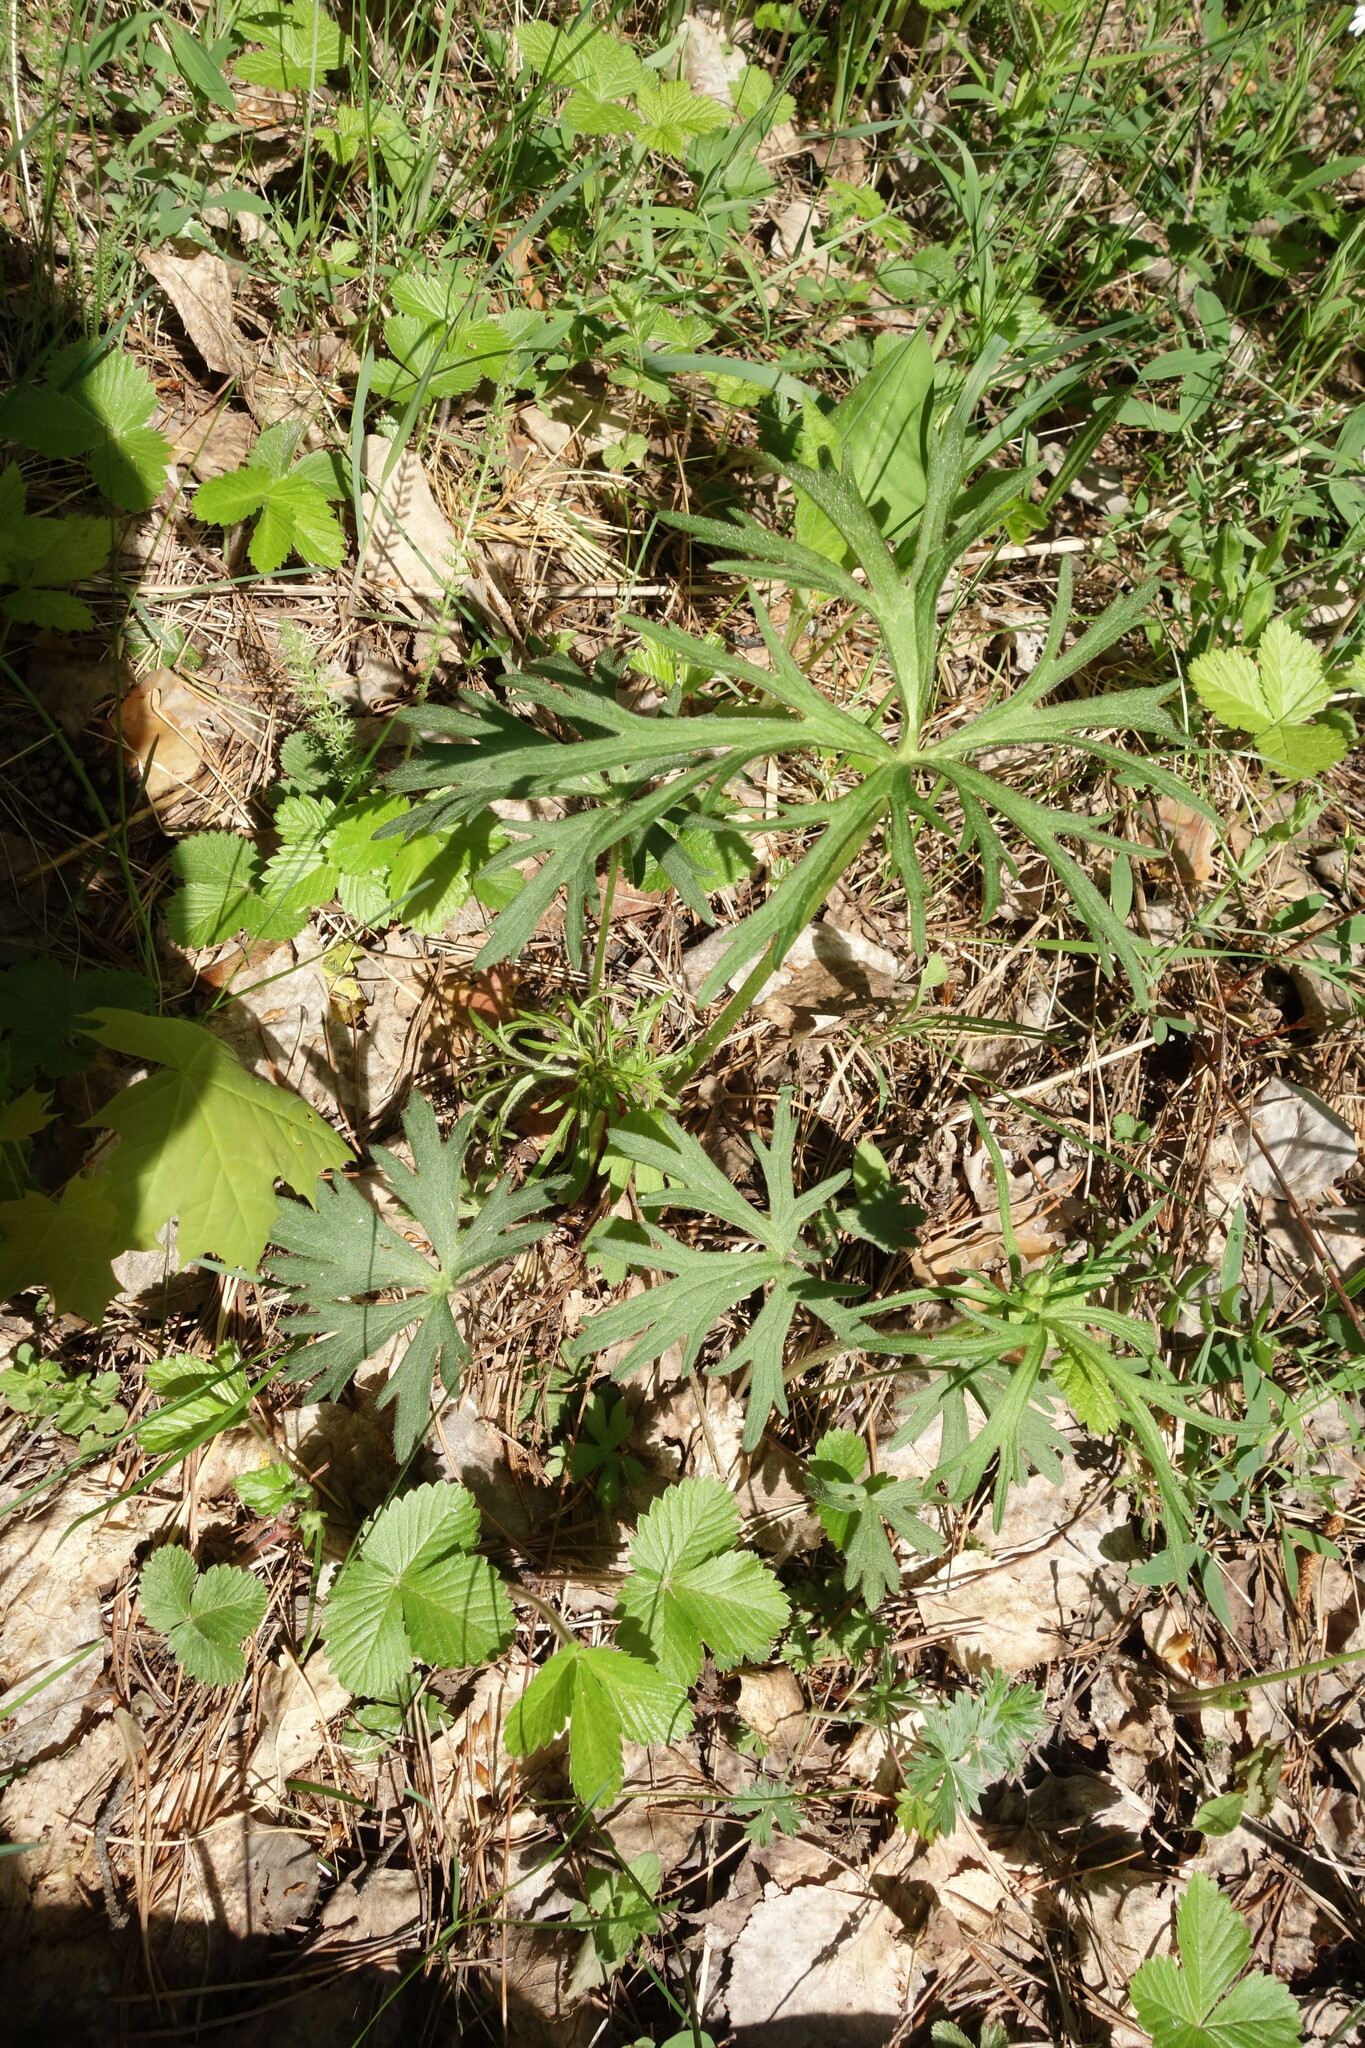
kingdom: Plantae
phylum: Tracheophyta
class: Magnoliopsida
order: Ranunculales
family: Ranunculaceae
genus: Ranunculus
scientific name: Ranunculus polyanthemos
